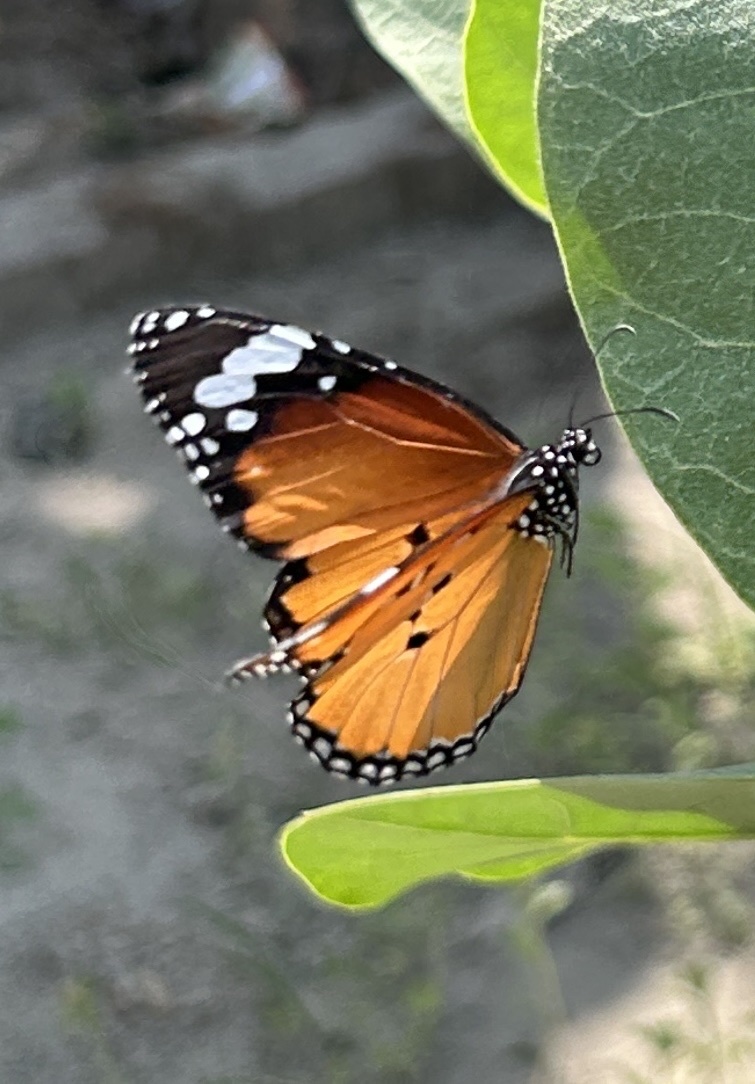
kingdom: Animalia
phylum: Arthropoda
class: Insecta
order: Lepidoptera
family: Nymphalidae
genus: Danaus
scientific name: Danaus chrysippus
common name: Plain tiger
